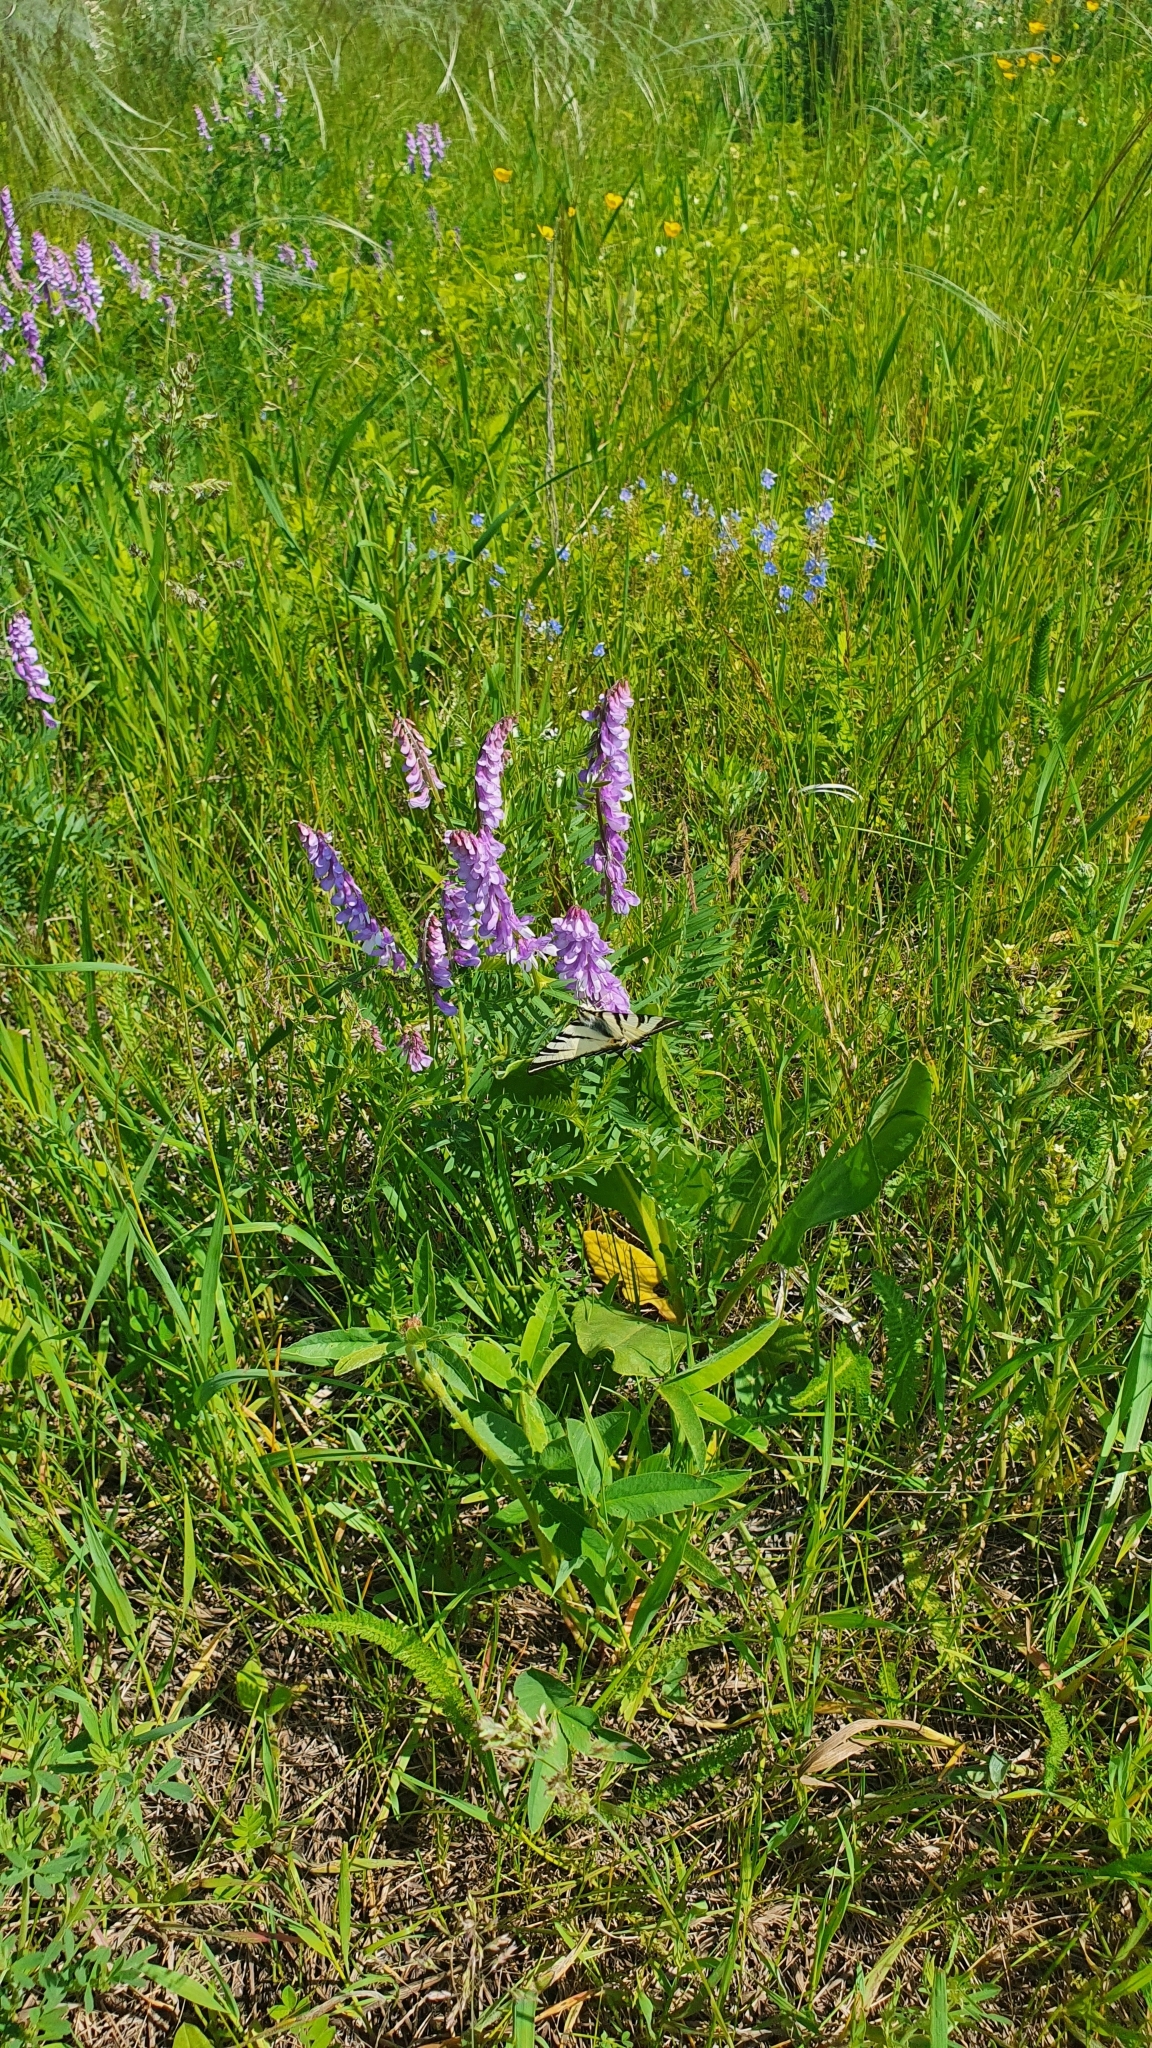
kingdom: Plantae
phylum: Tracheophyta
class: Magnoliopsida
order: Fabales
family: Fabaceae
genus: Vicia
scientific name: Vicia tenuifolia
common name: Fine-leaved vetch
